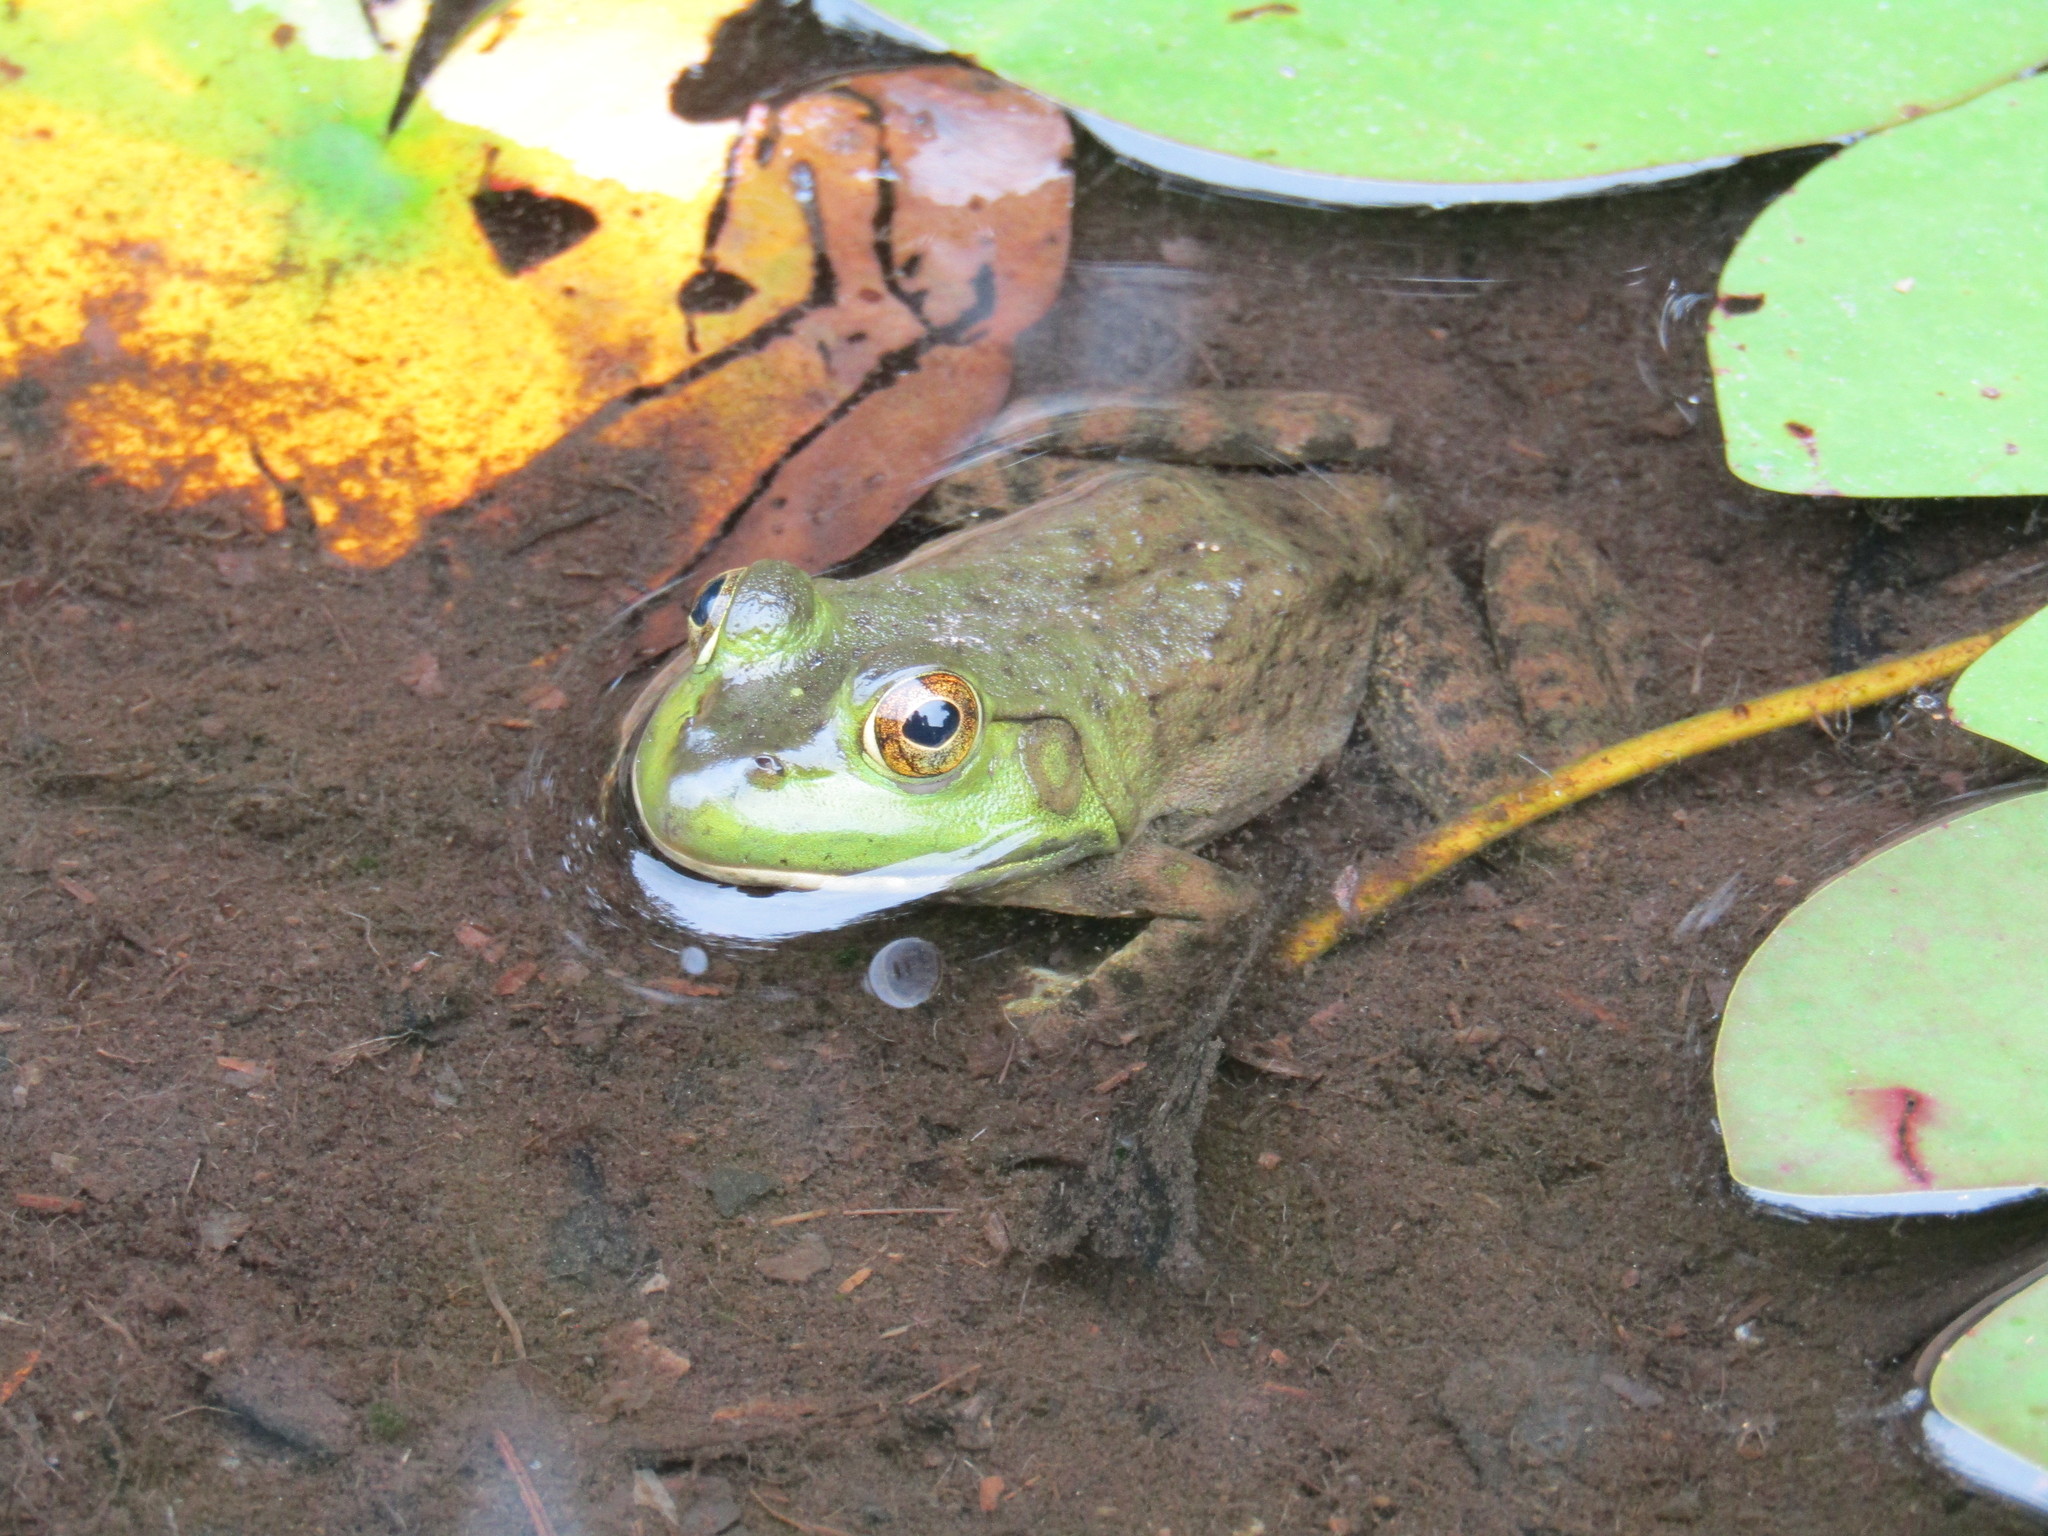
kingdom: Animalia
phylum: Chordata
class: Amphibia
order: Anura
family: Ranidae
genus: Lithobates
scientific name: Lithobates catesbeianus
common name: American bullfrog
